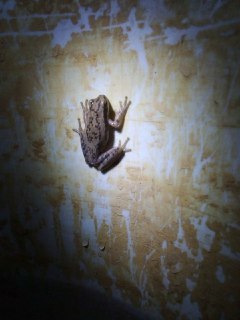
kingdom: Animalia
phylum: Chordata
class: Amphibia
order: Anura
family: Hylidae
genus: Boana
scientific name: Boana pulchella
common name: Montevideo treefrog
